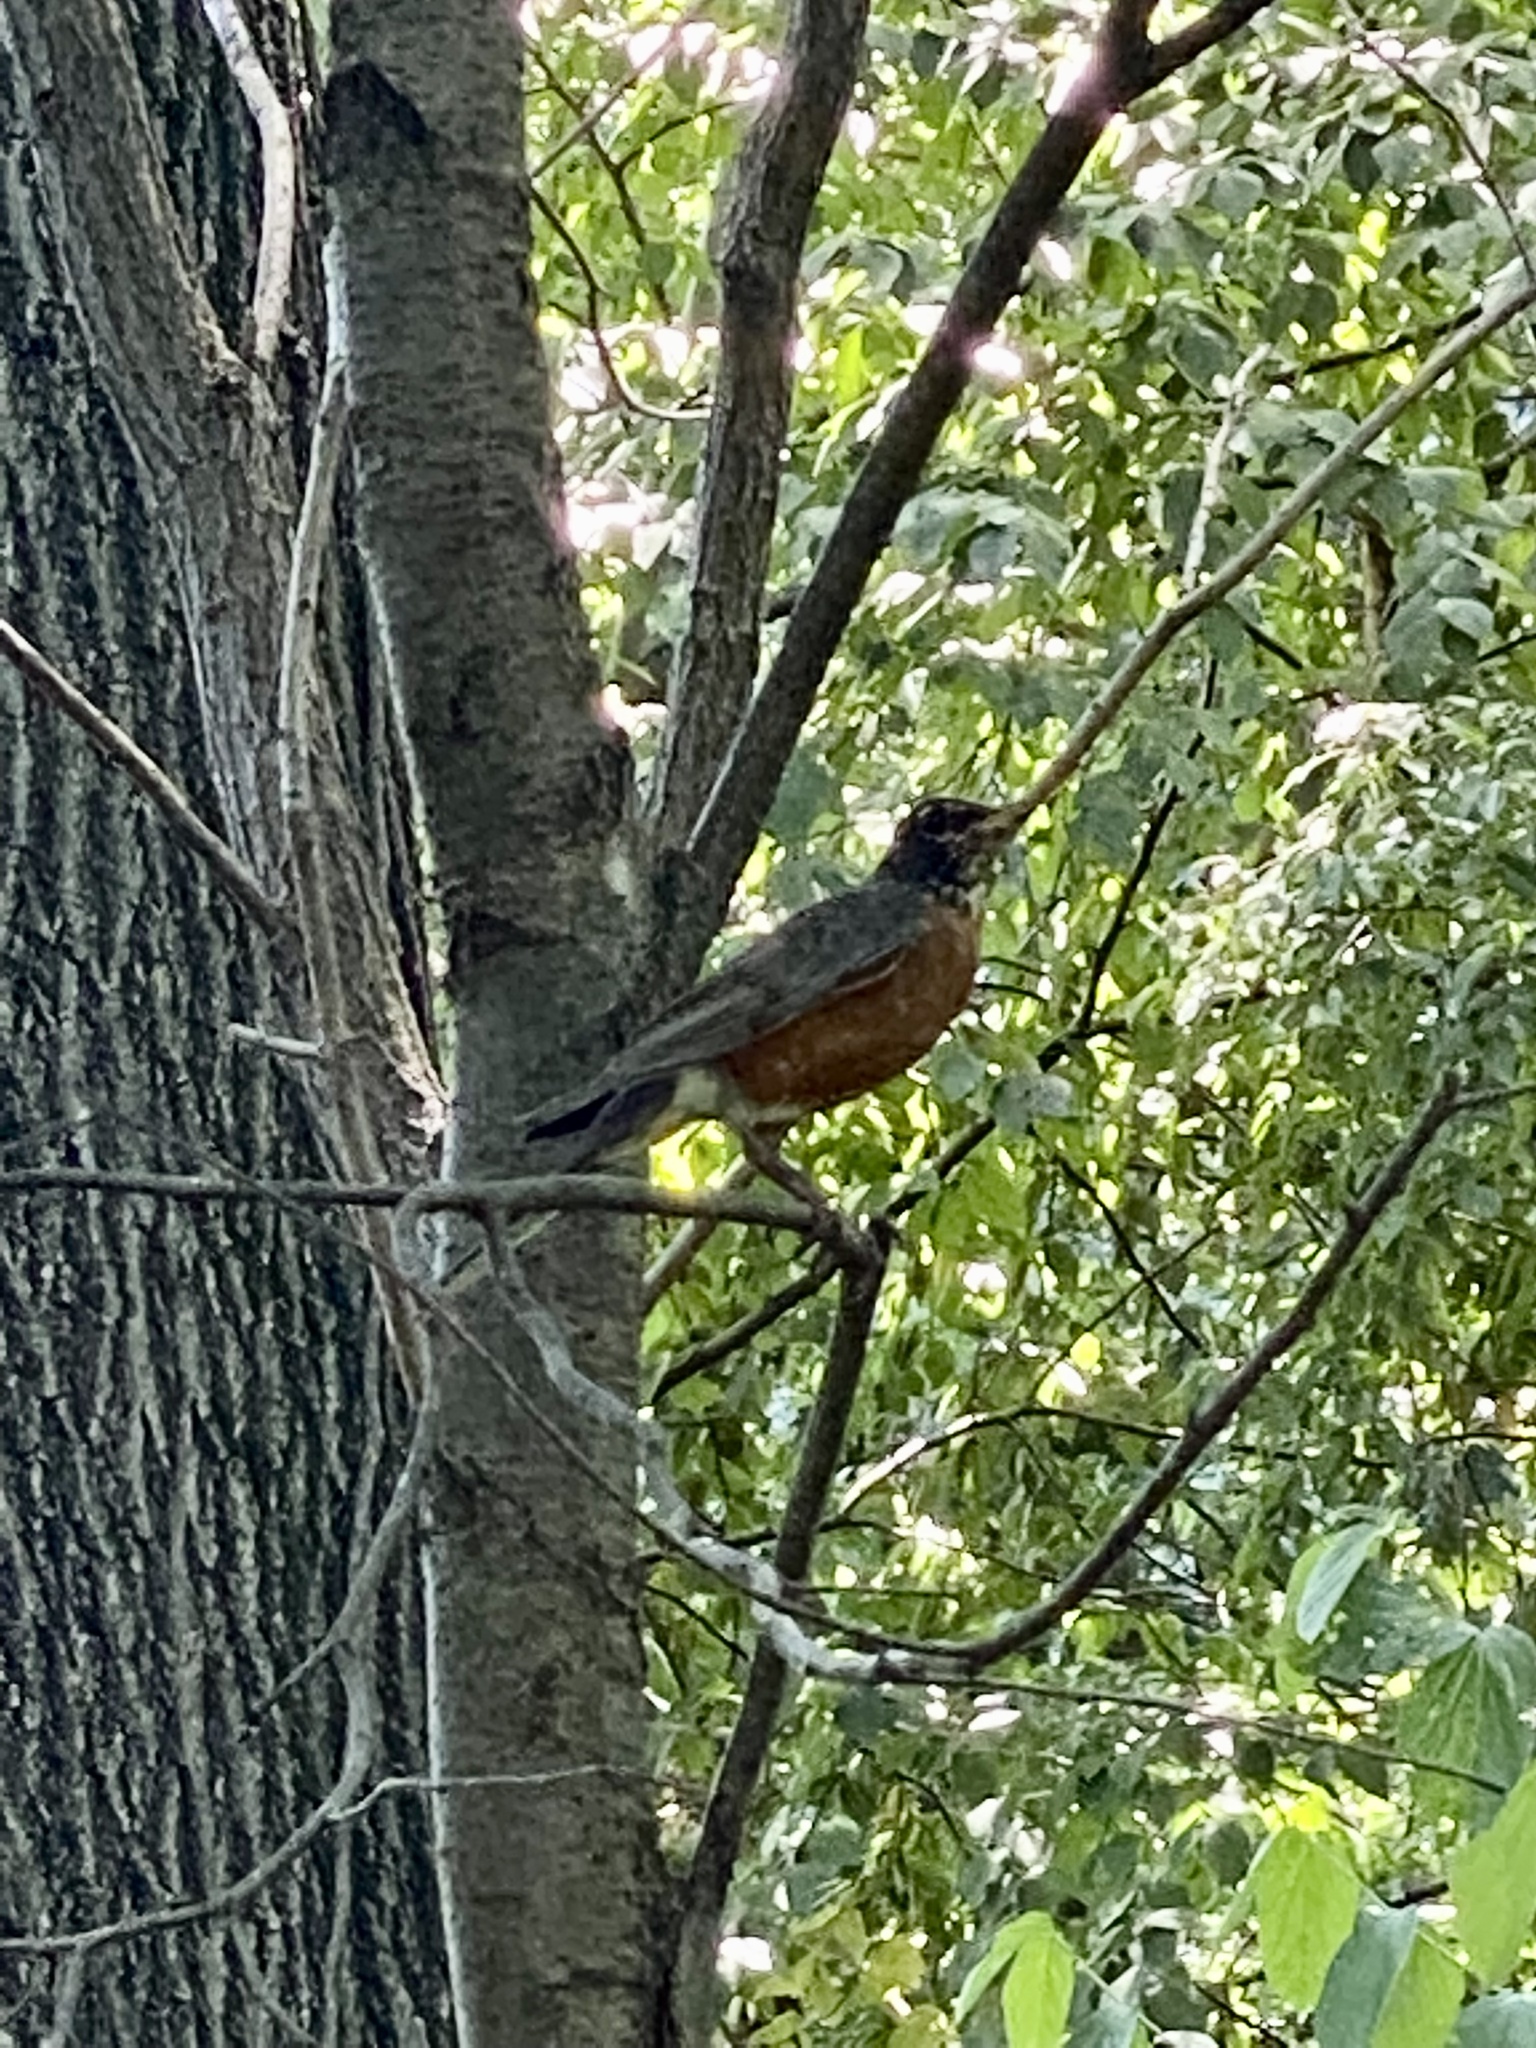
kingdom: Animalia
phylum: Chordata
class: Aves
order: Passeriformes
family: Turdidae
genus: Turdus
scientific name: Turdus migratorius
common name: American robin
